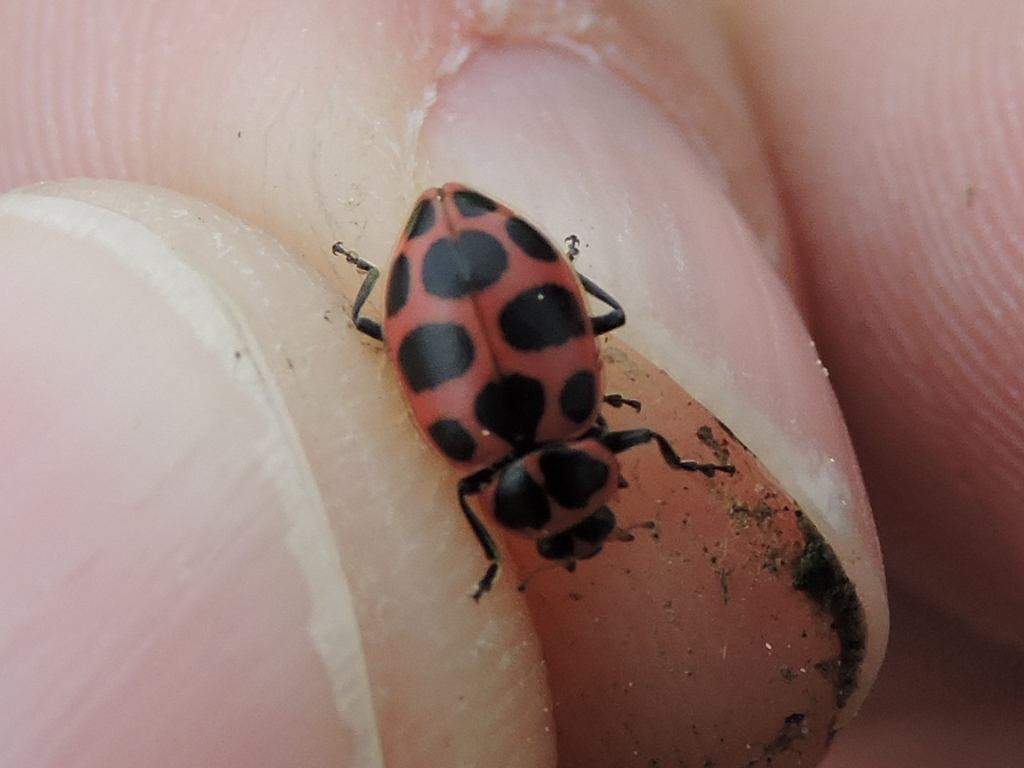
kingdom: Animalia
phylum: Arthropoda
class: Insecta
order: Coleoptera
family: Coccinellidae
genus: Coleomegilla
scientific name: Coleomegilla maculata
